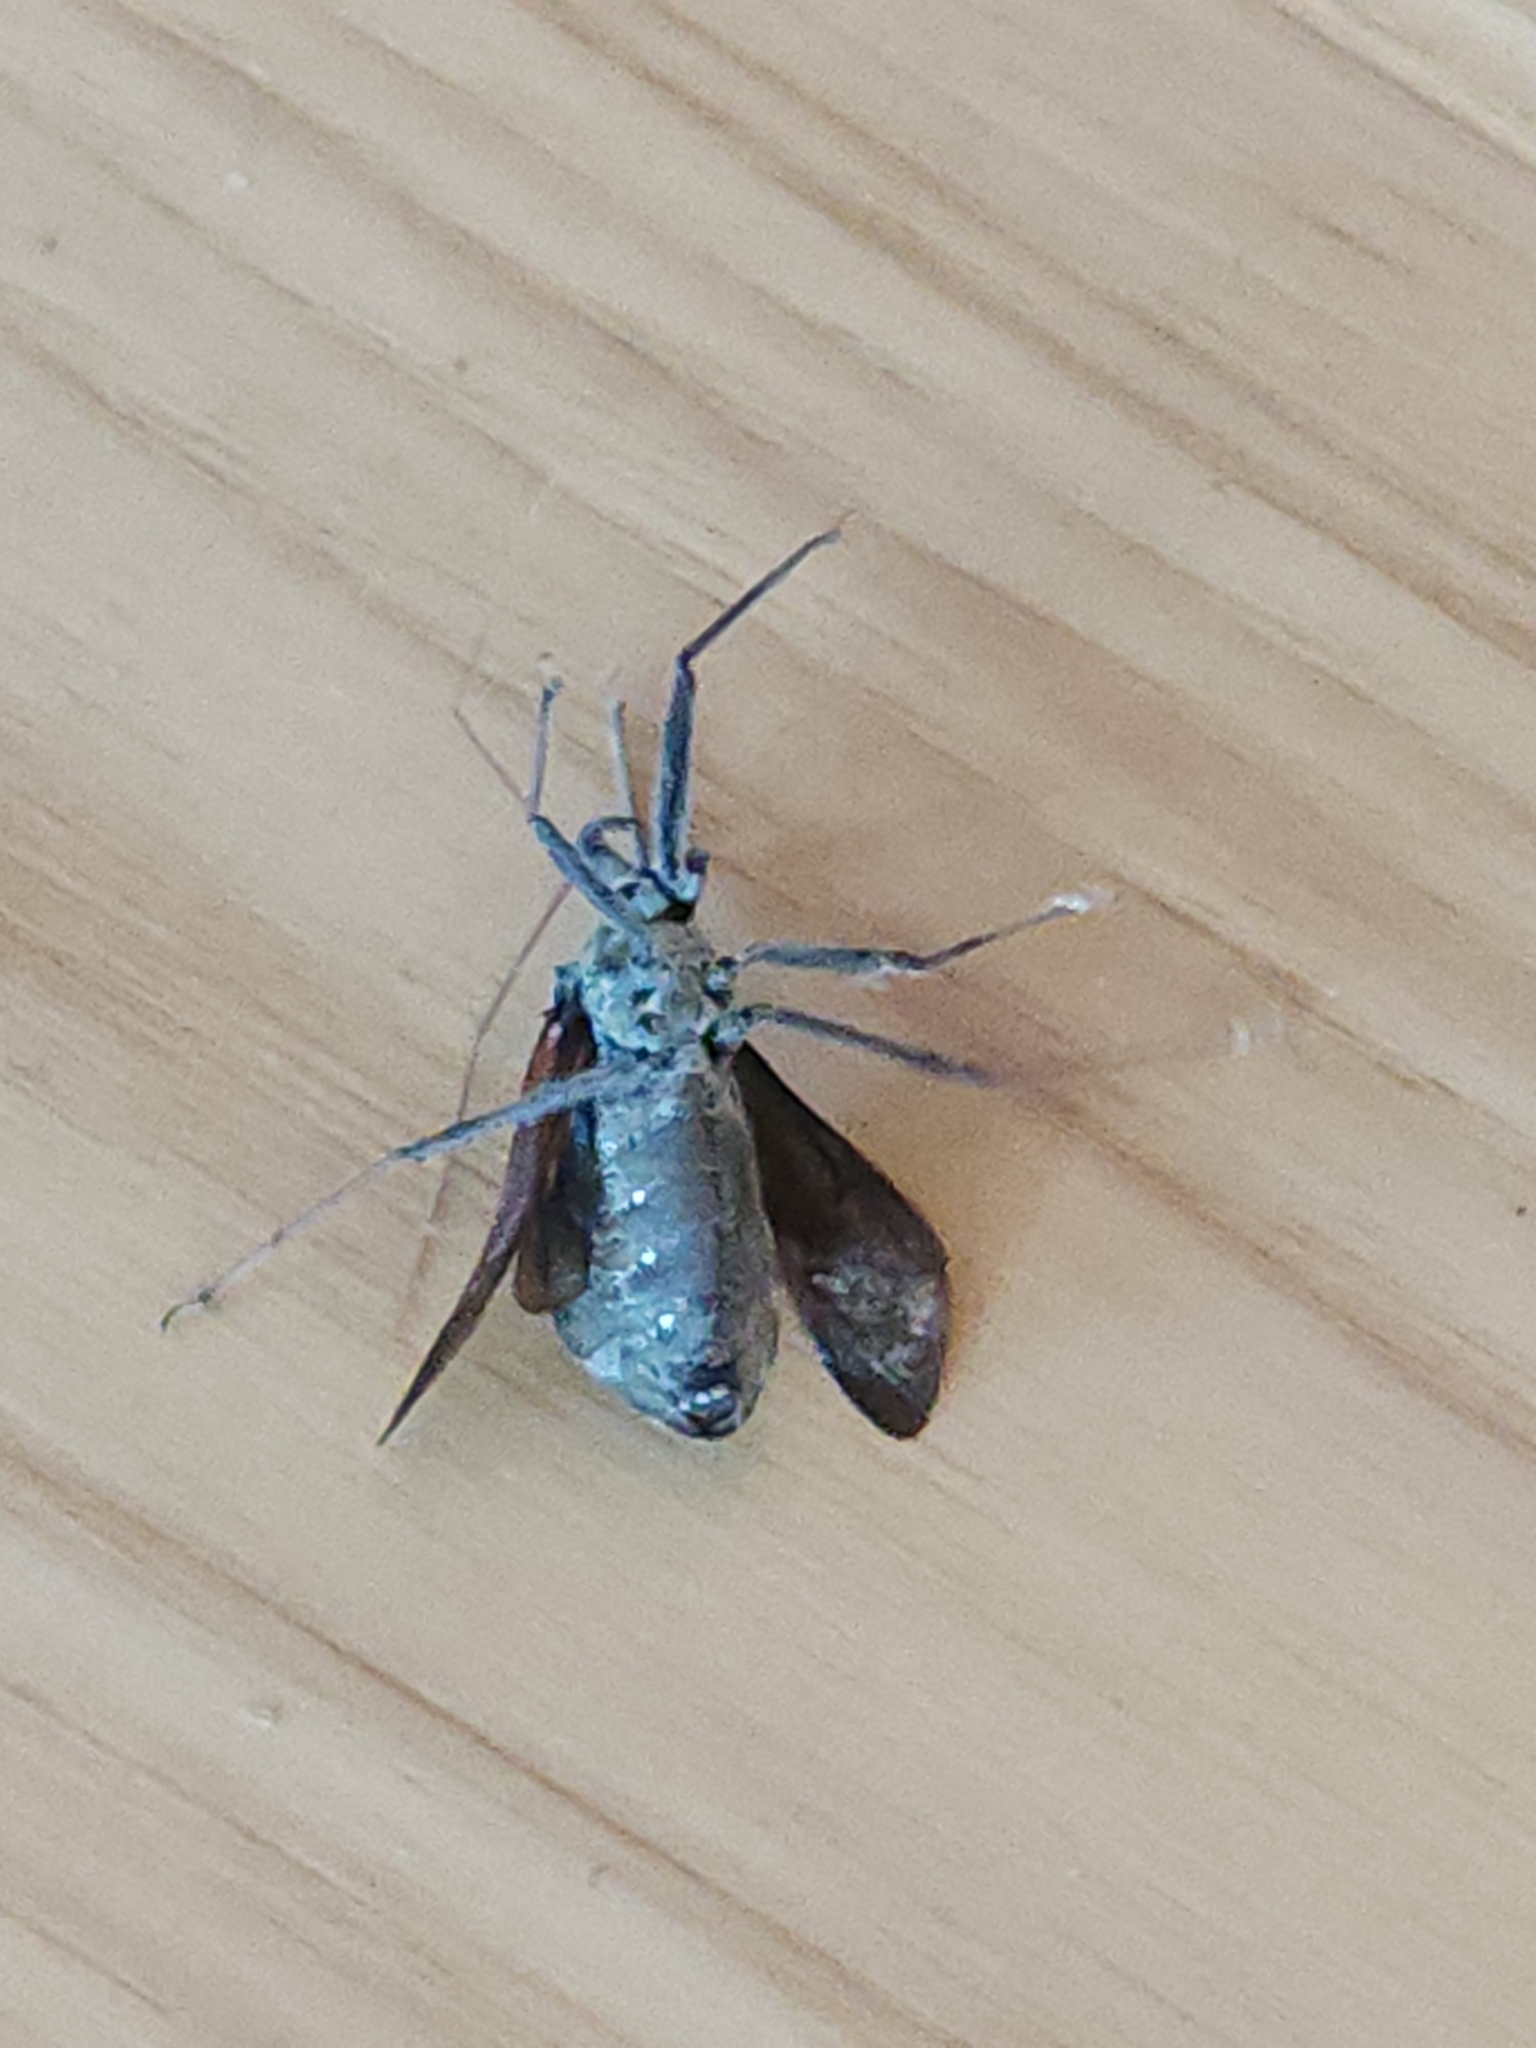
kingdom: Animalia
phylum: Arthropoda
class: Insecta
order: Hemiptera
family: Reduviidae
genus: Arilus
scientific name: Arilus cristatus
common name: North american wheel bug
